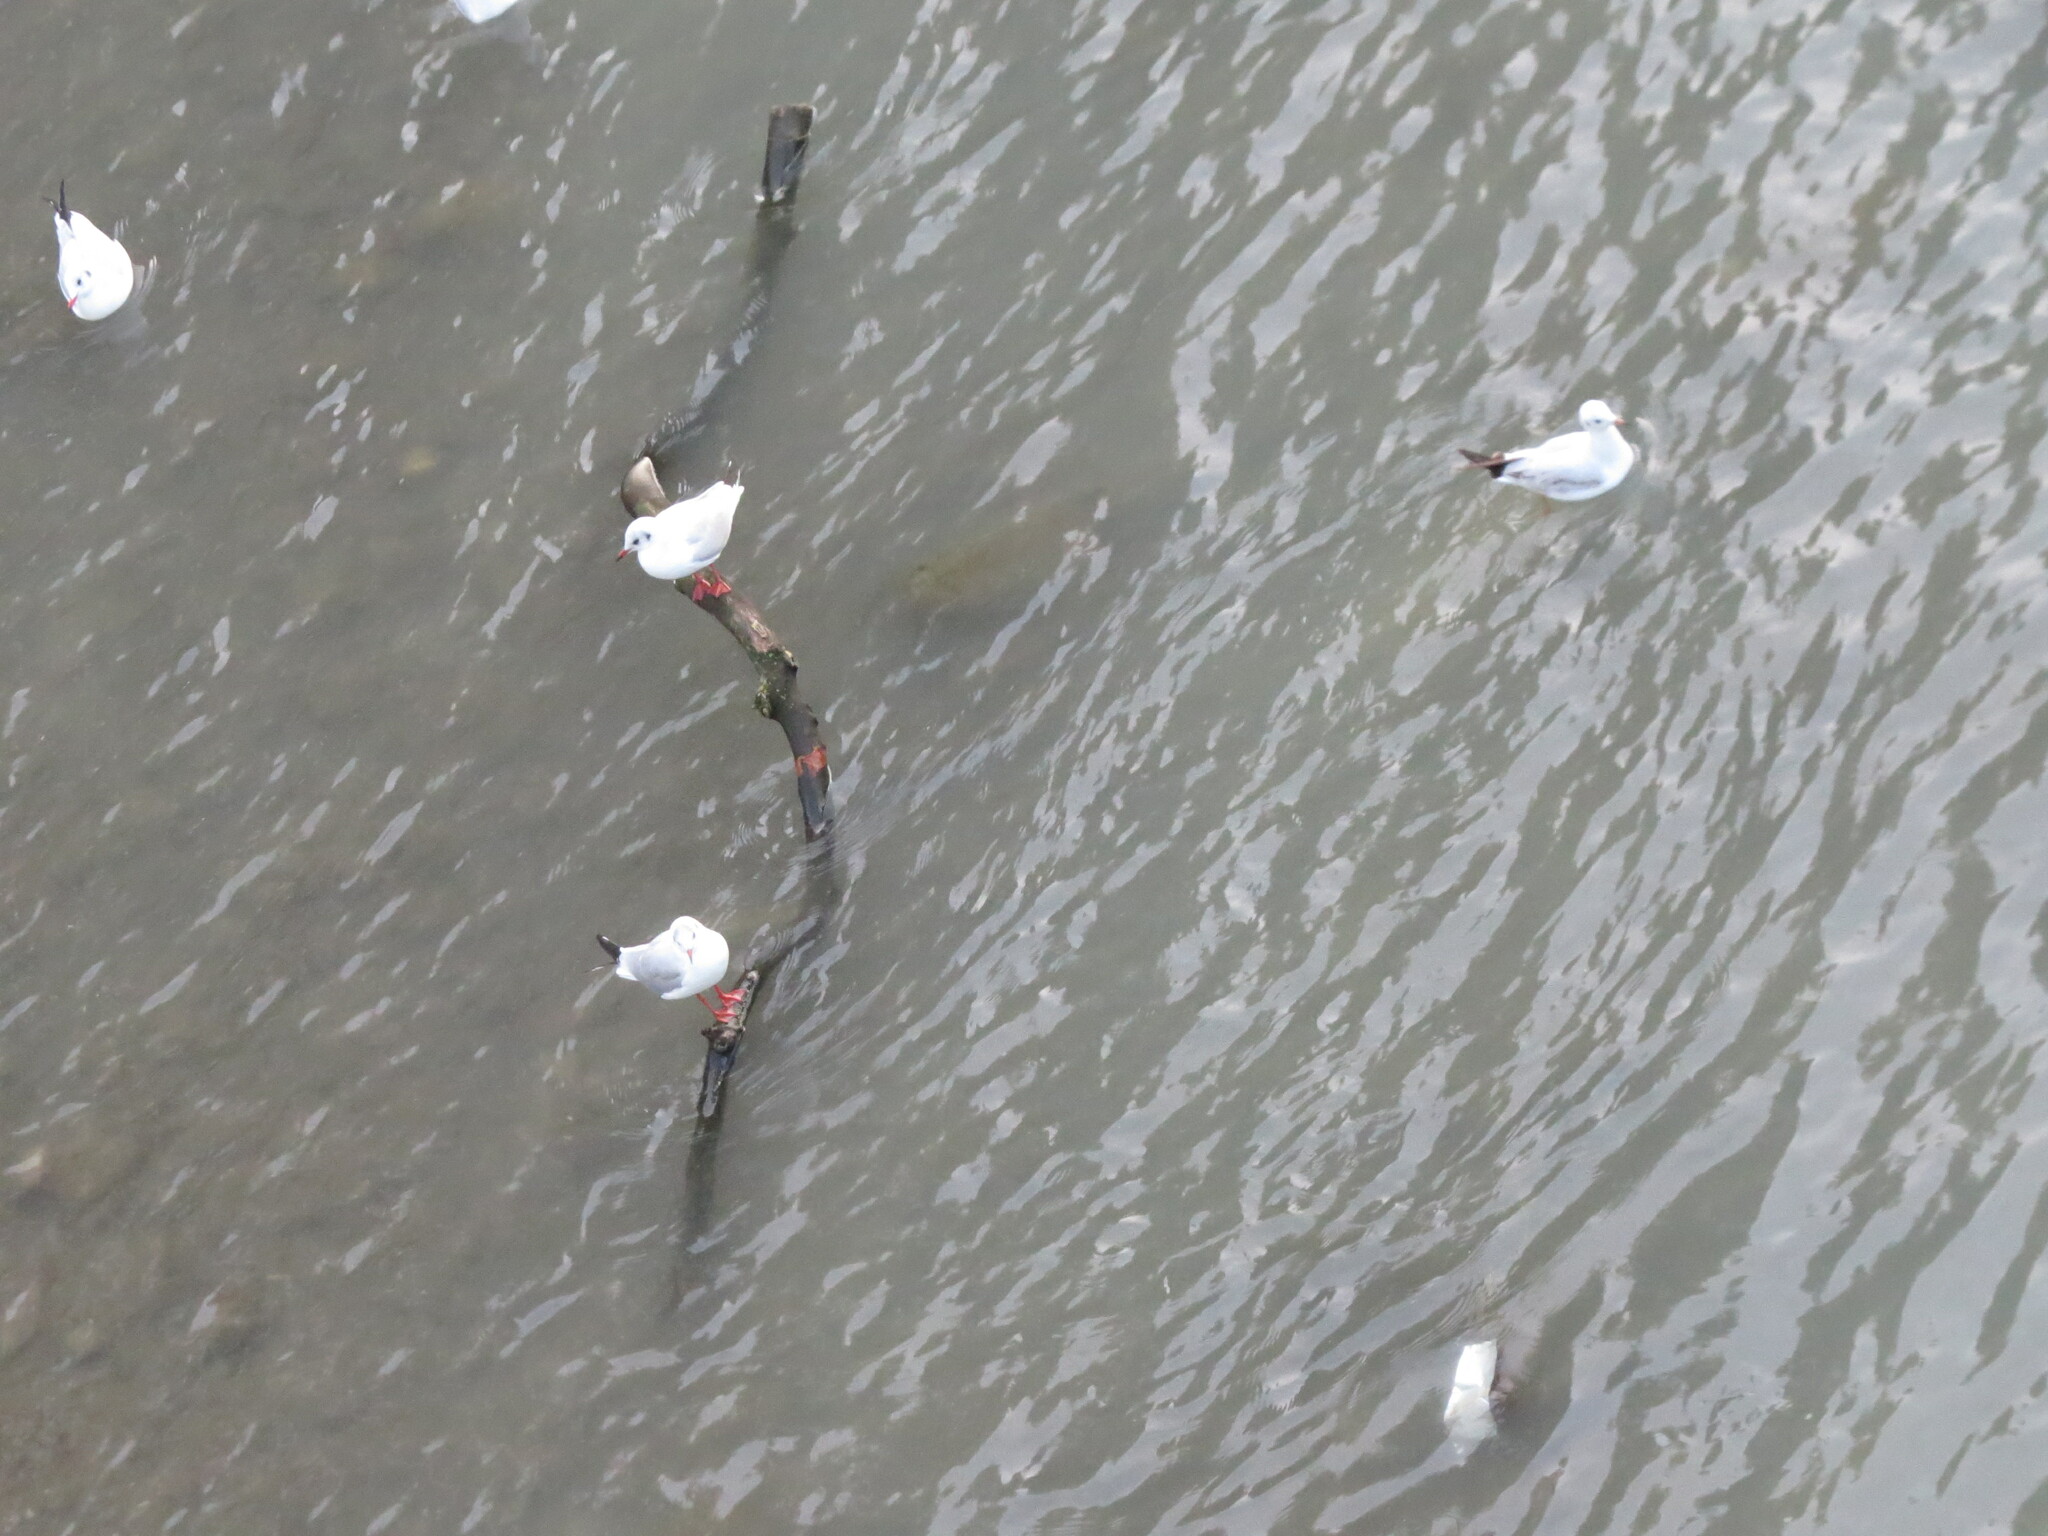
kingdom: Animalia
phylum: Chordata
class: Aves
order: Charadriiformes
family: Laridae
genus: Chroicocephalus
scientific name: Chroicocephalus ridibundus
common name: Black-headed gull
